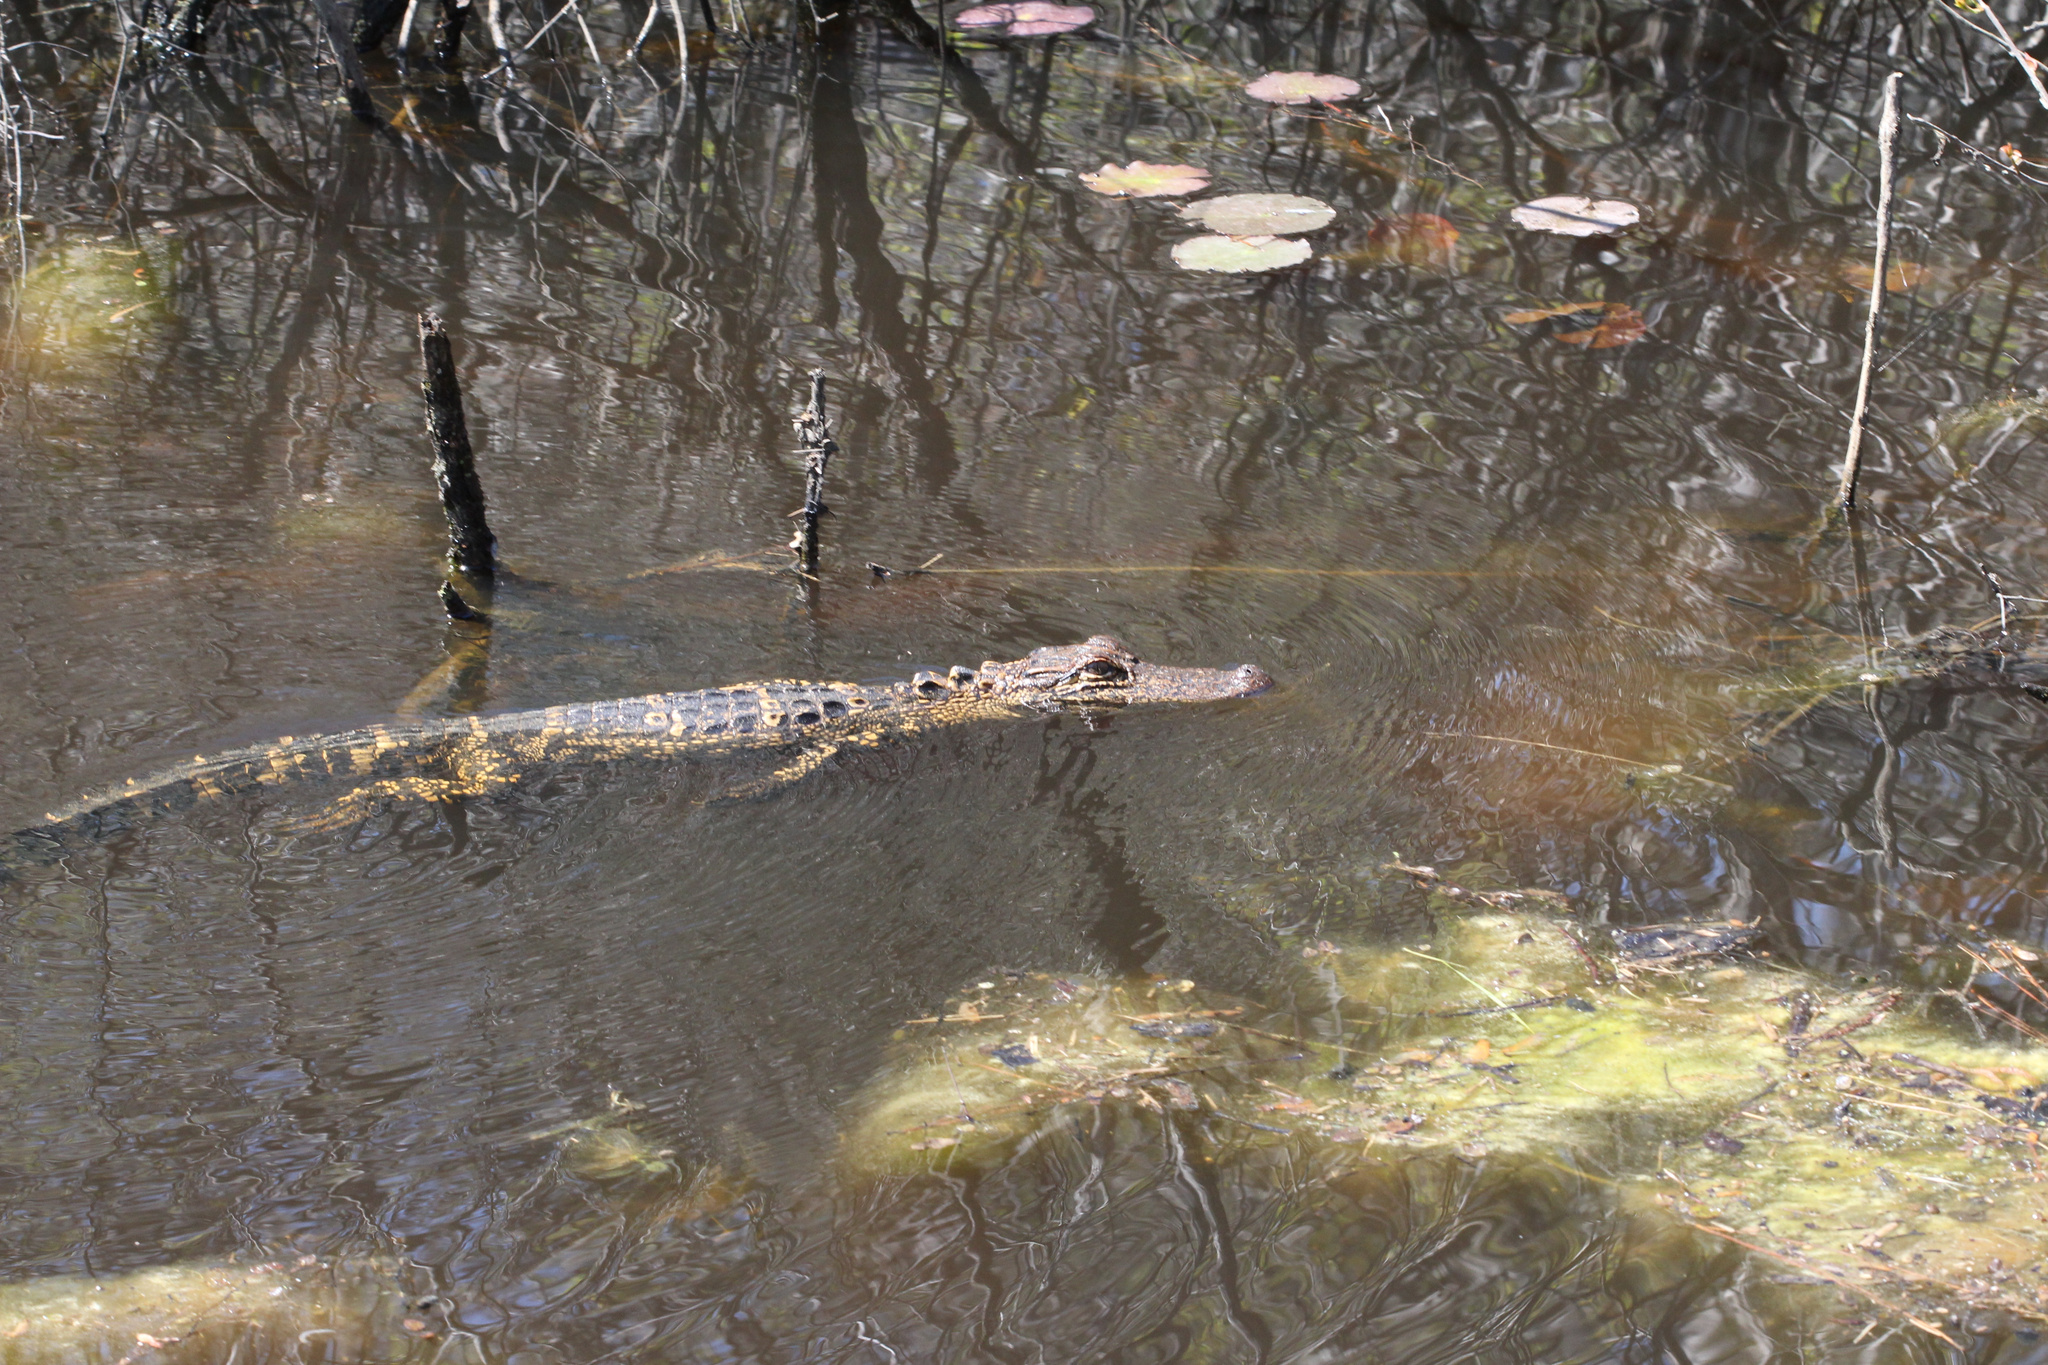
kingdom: Animalia
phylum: Chordata
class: Crocodylia
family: Alligatoridae
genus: Alligator
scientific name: Alligator mississippiensis
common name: American alligator
